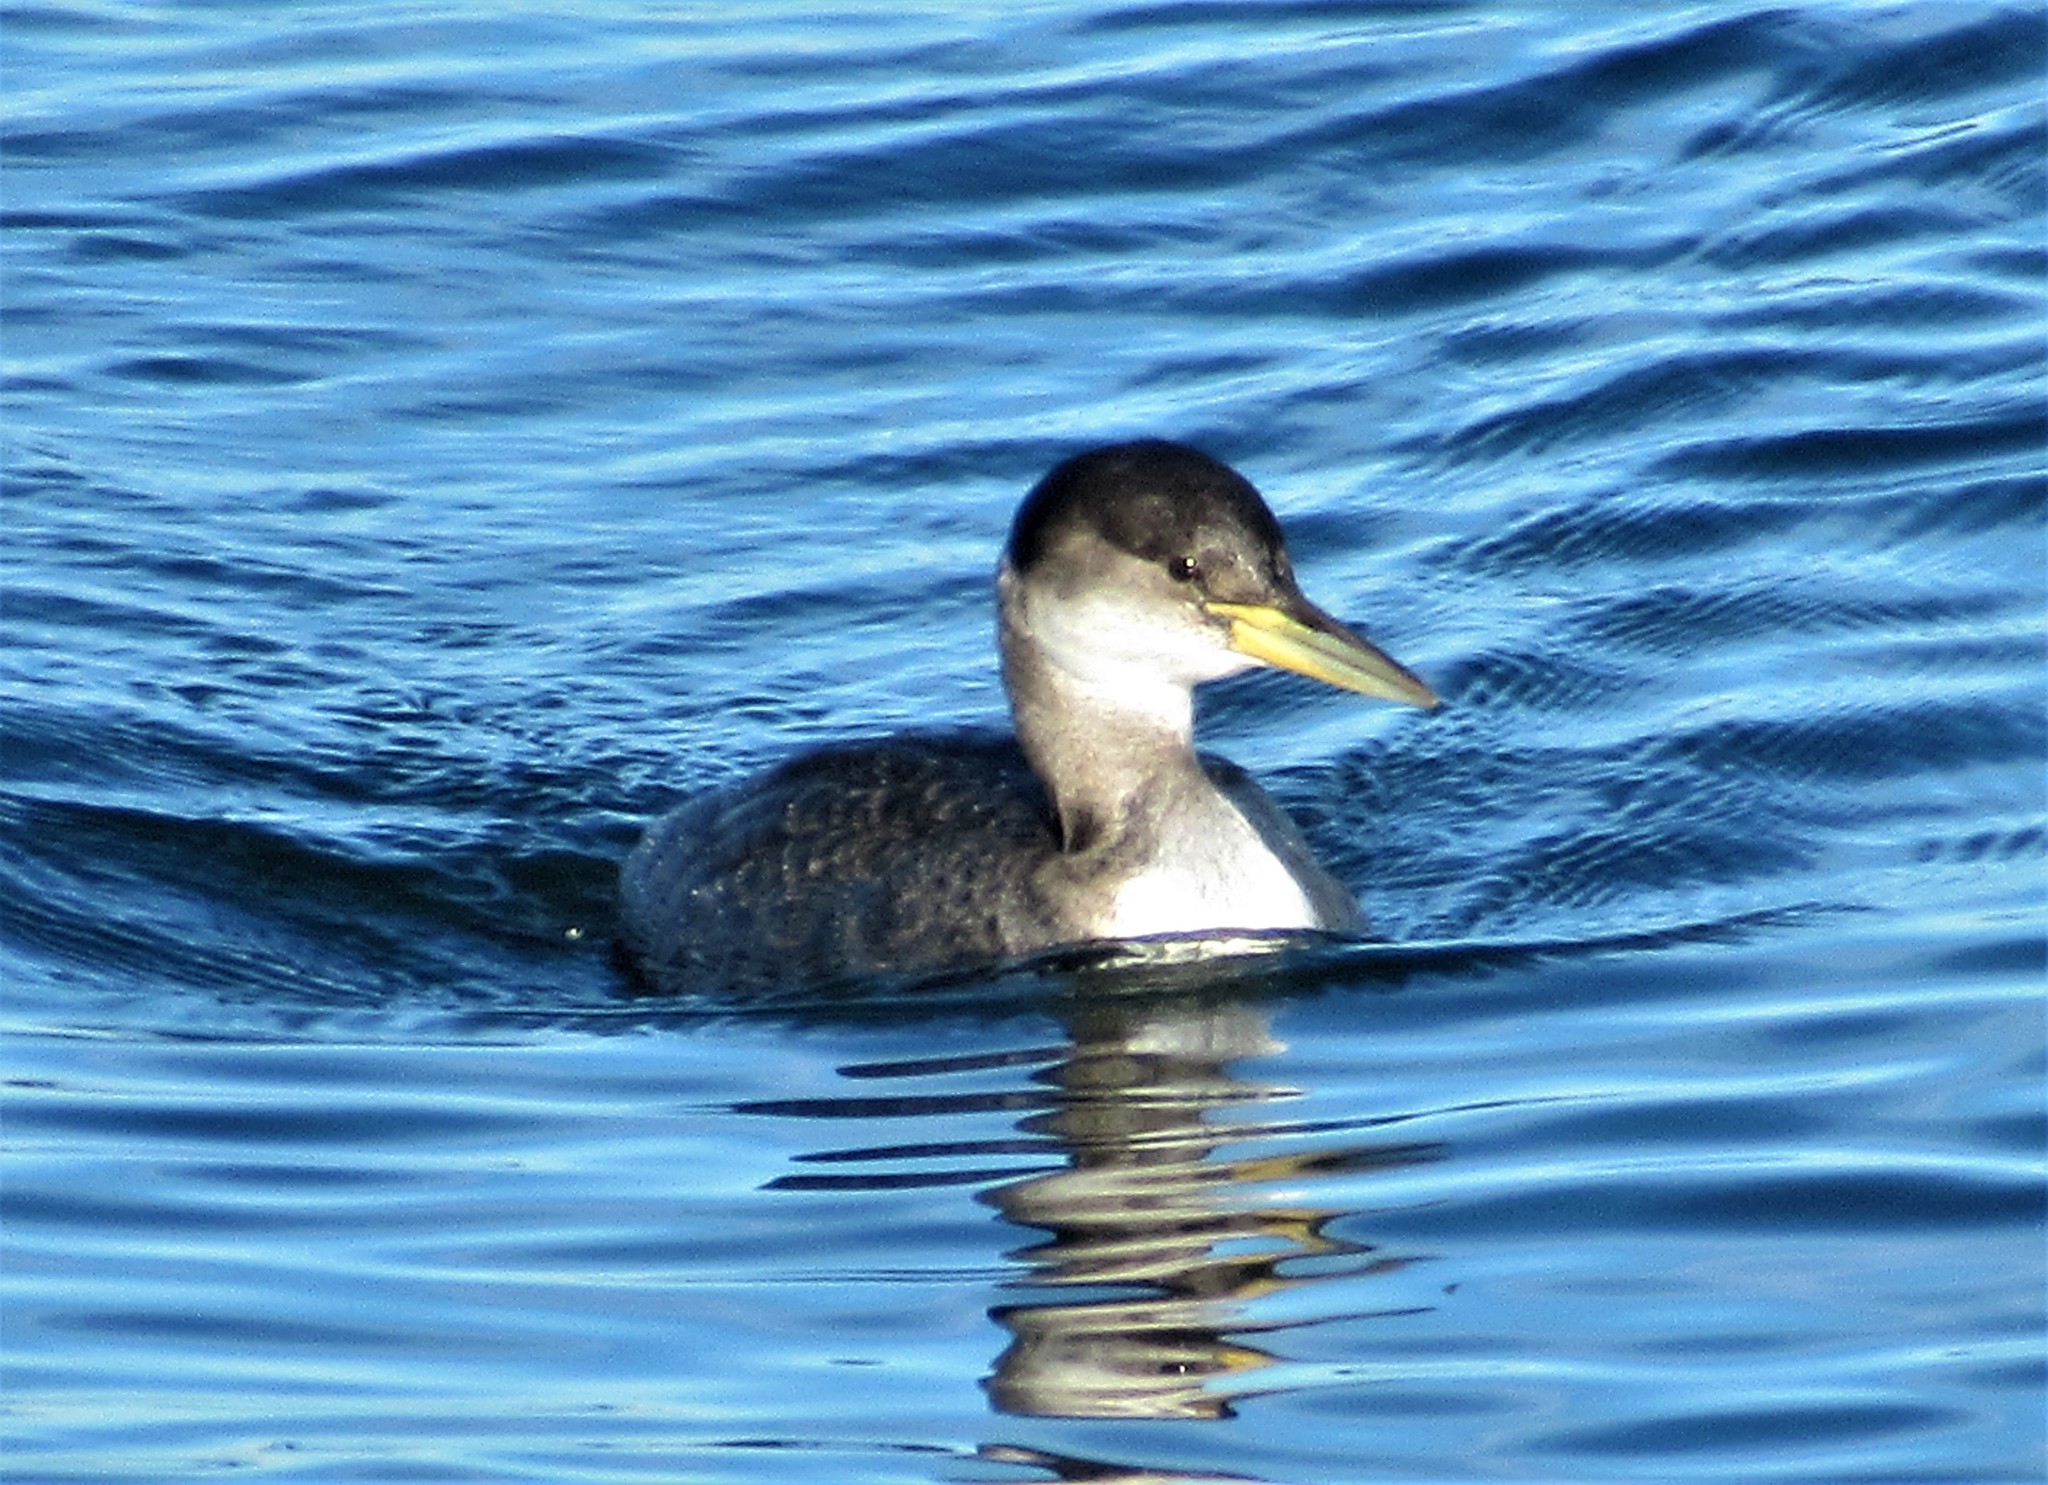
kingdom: Animalia
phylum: Chordata
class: Aves
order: Podicipediformes
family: Podicipedidae
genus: Podiceps
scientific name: Podiceps grisegena
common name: Red-necked grebe
